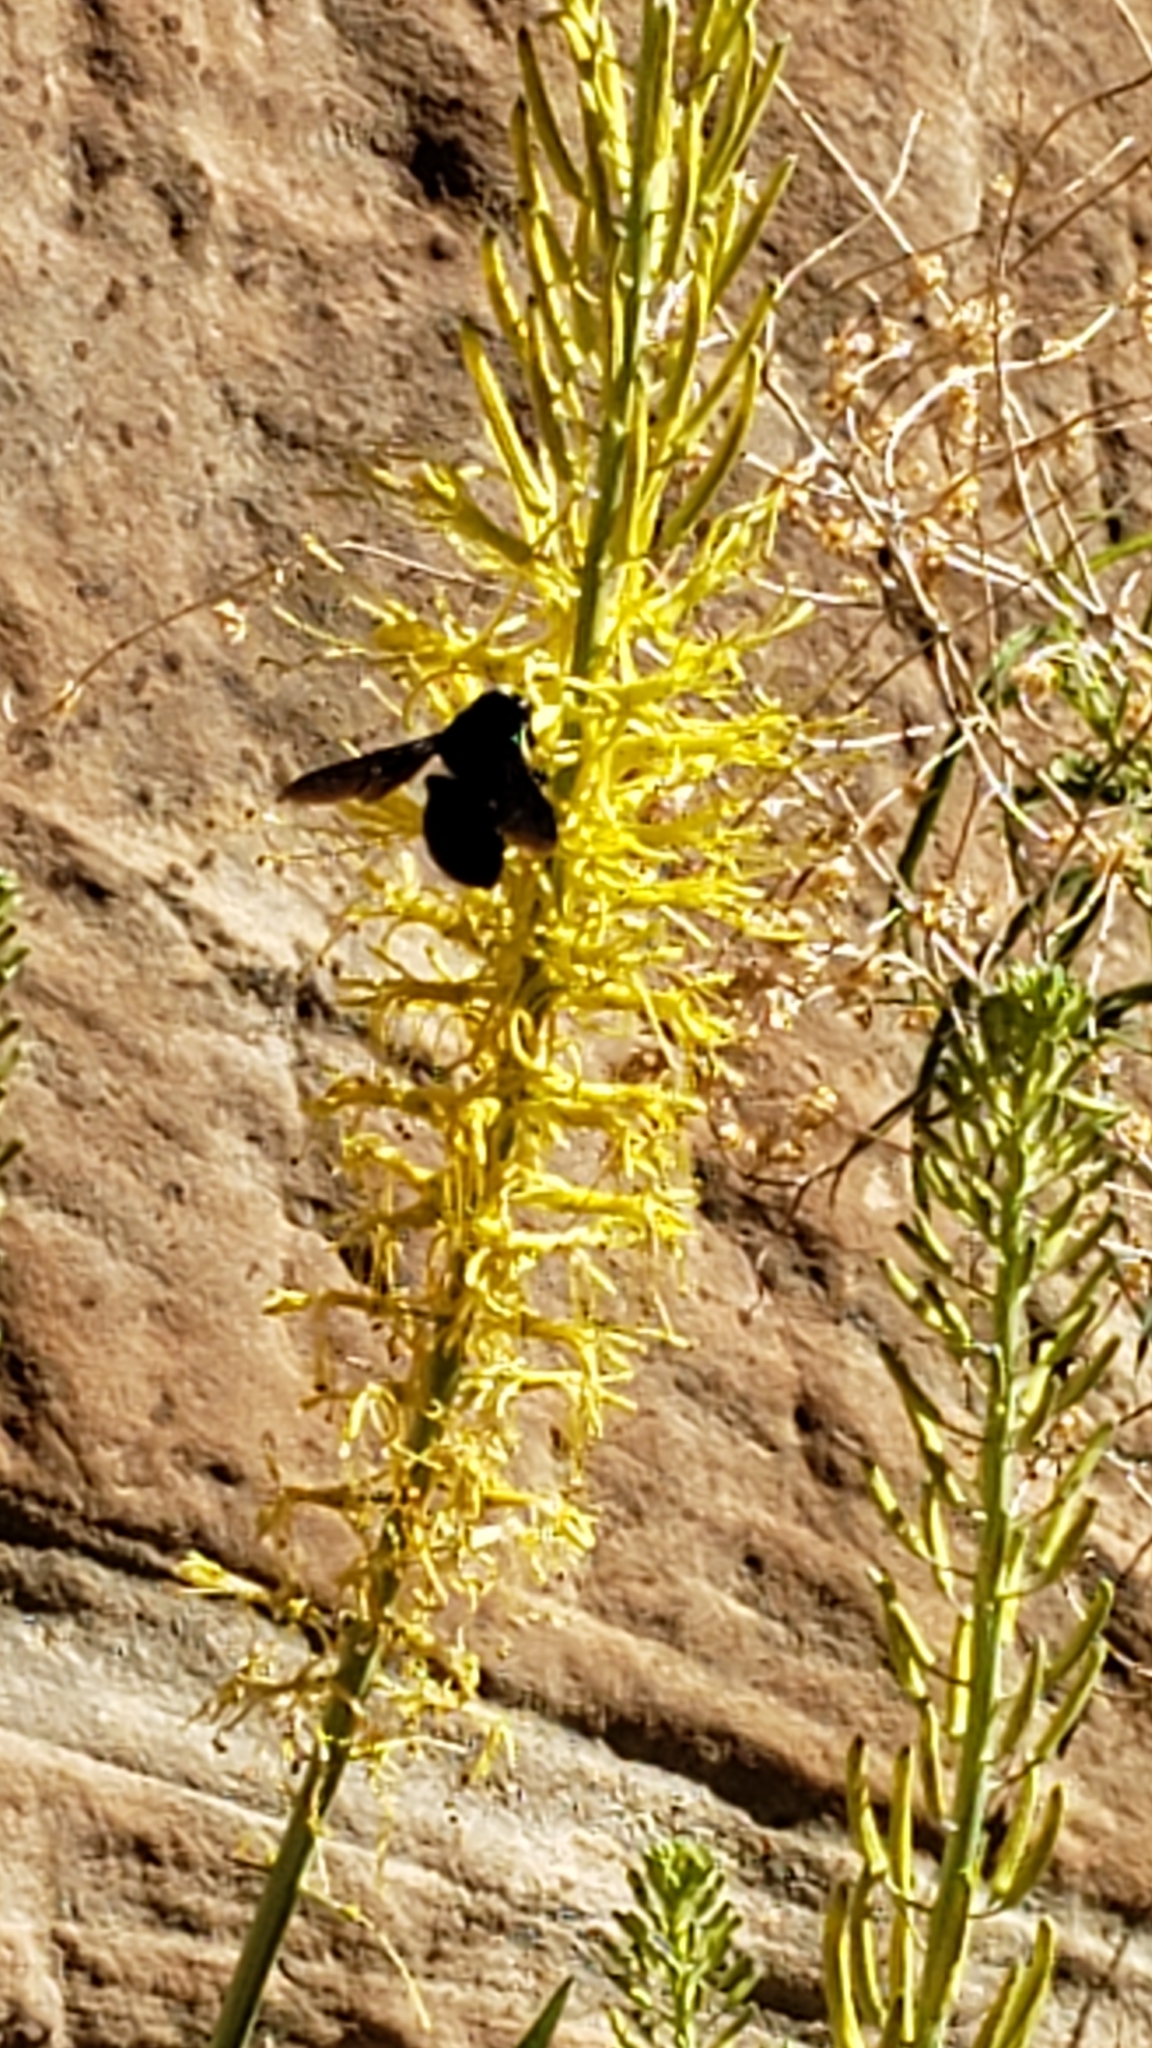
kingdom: Animalia
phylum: Arthropoda
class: Insecta
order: Hymenoptera
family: Apidae
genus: Xylocopa
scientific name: Xylocopa californica
